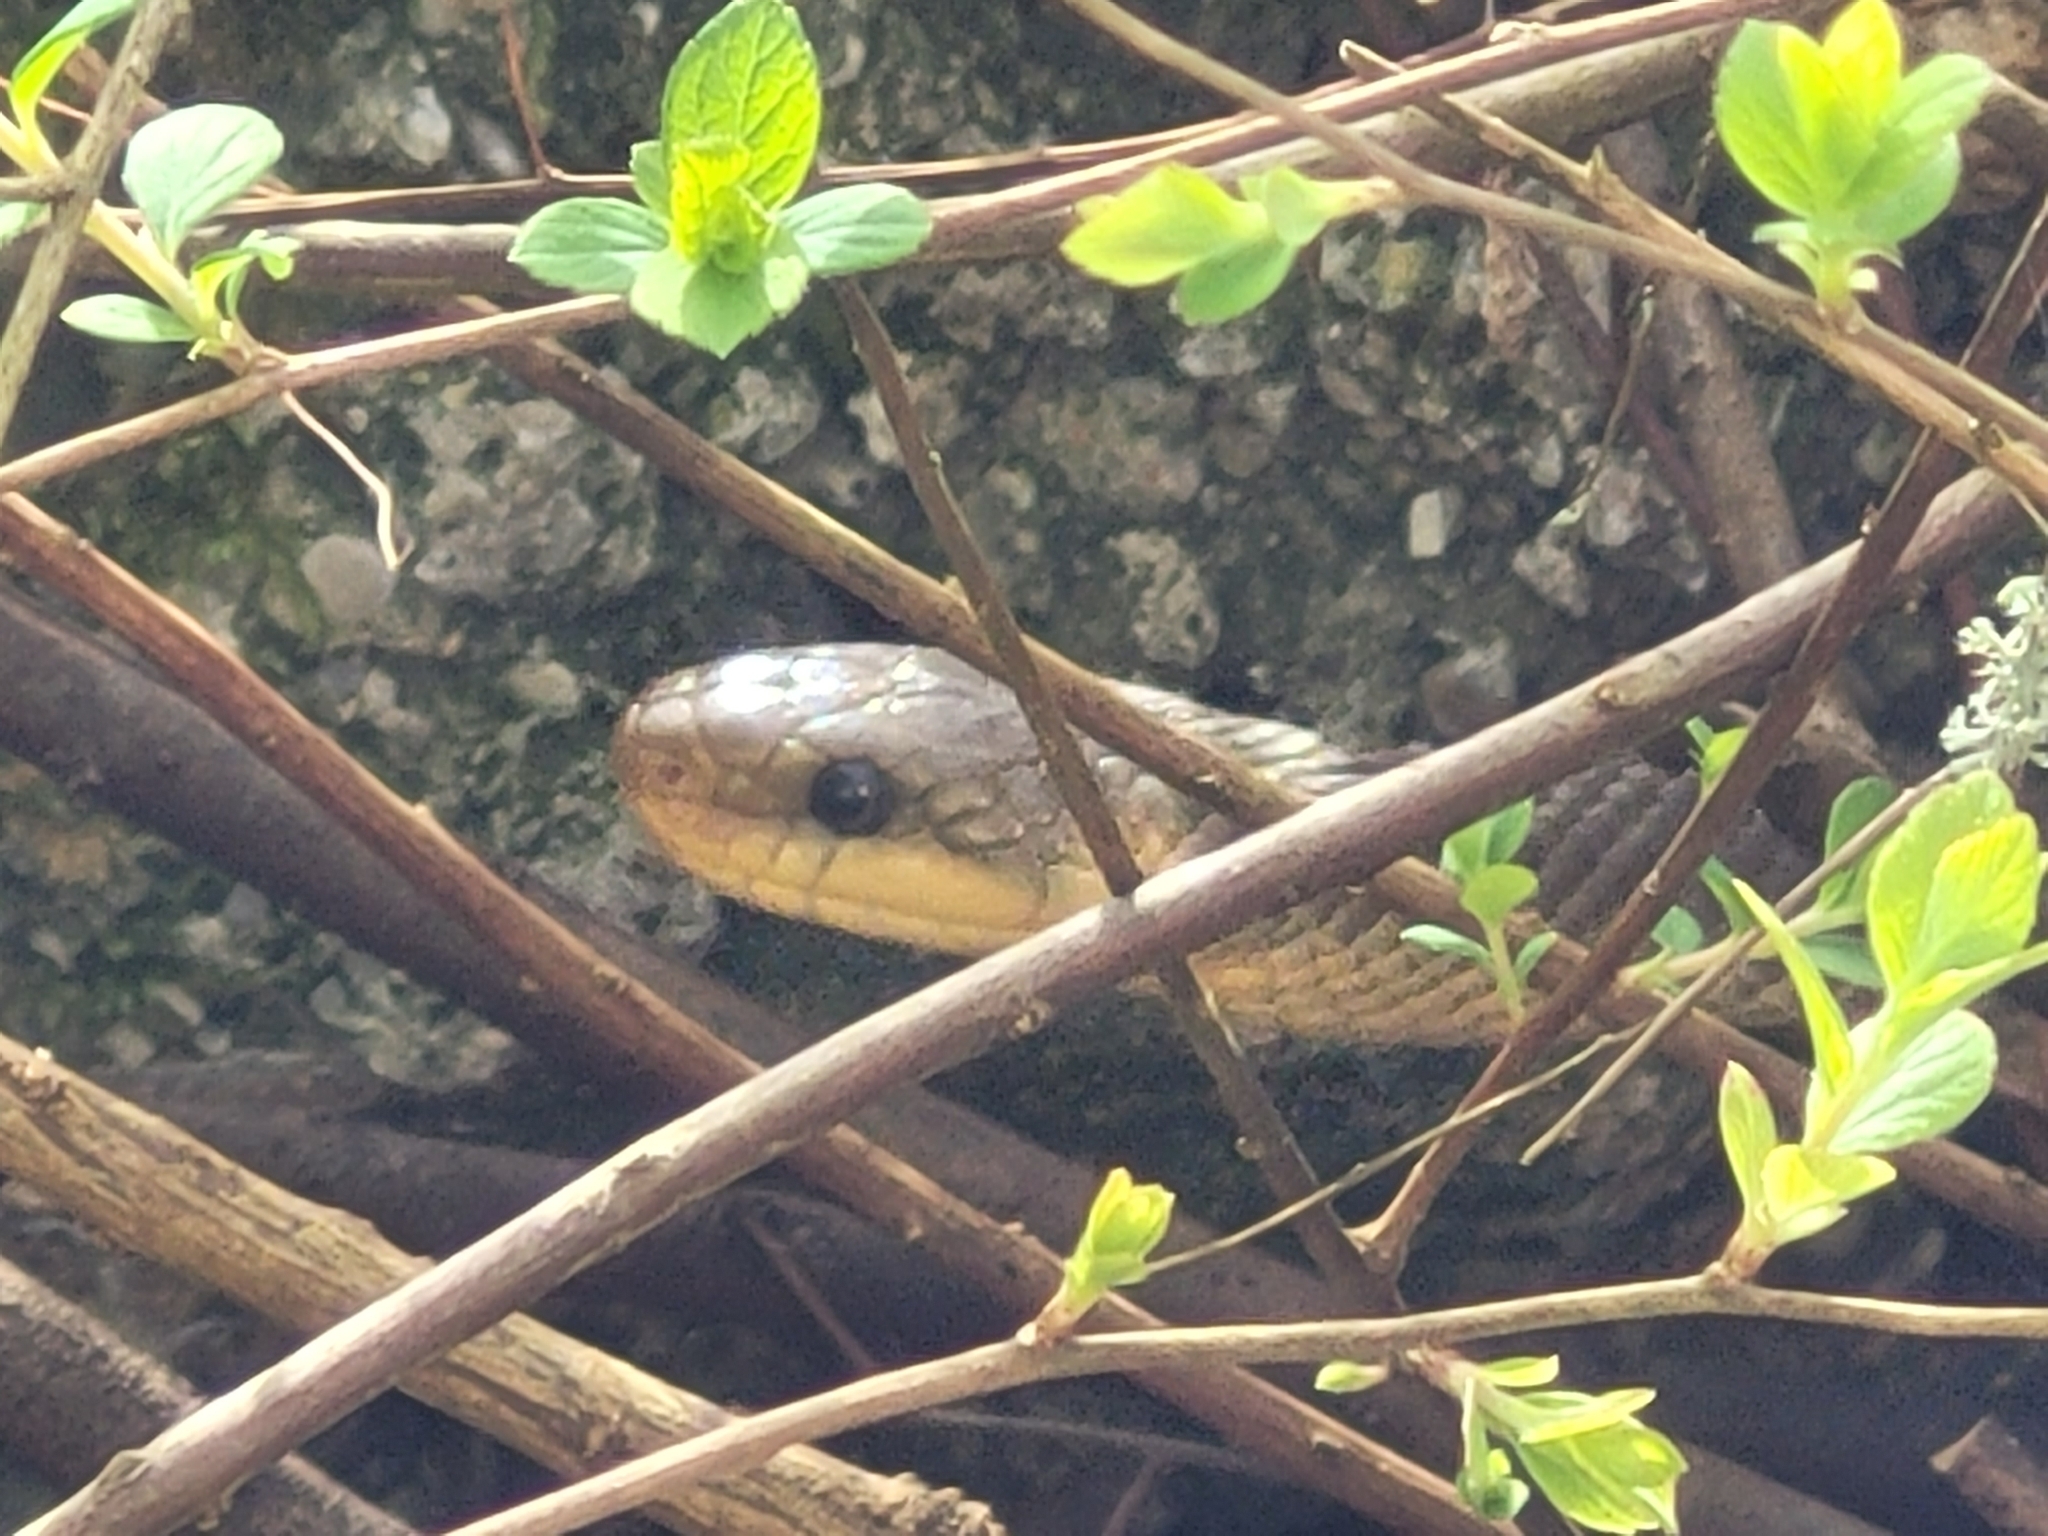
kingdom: Animalia
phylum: Chordata
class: Squamata
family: Colubridae
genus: Zamenis
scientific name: Zamenis longissimus
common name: Aesculapean snake
